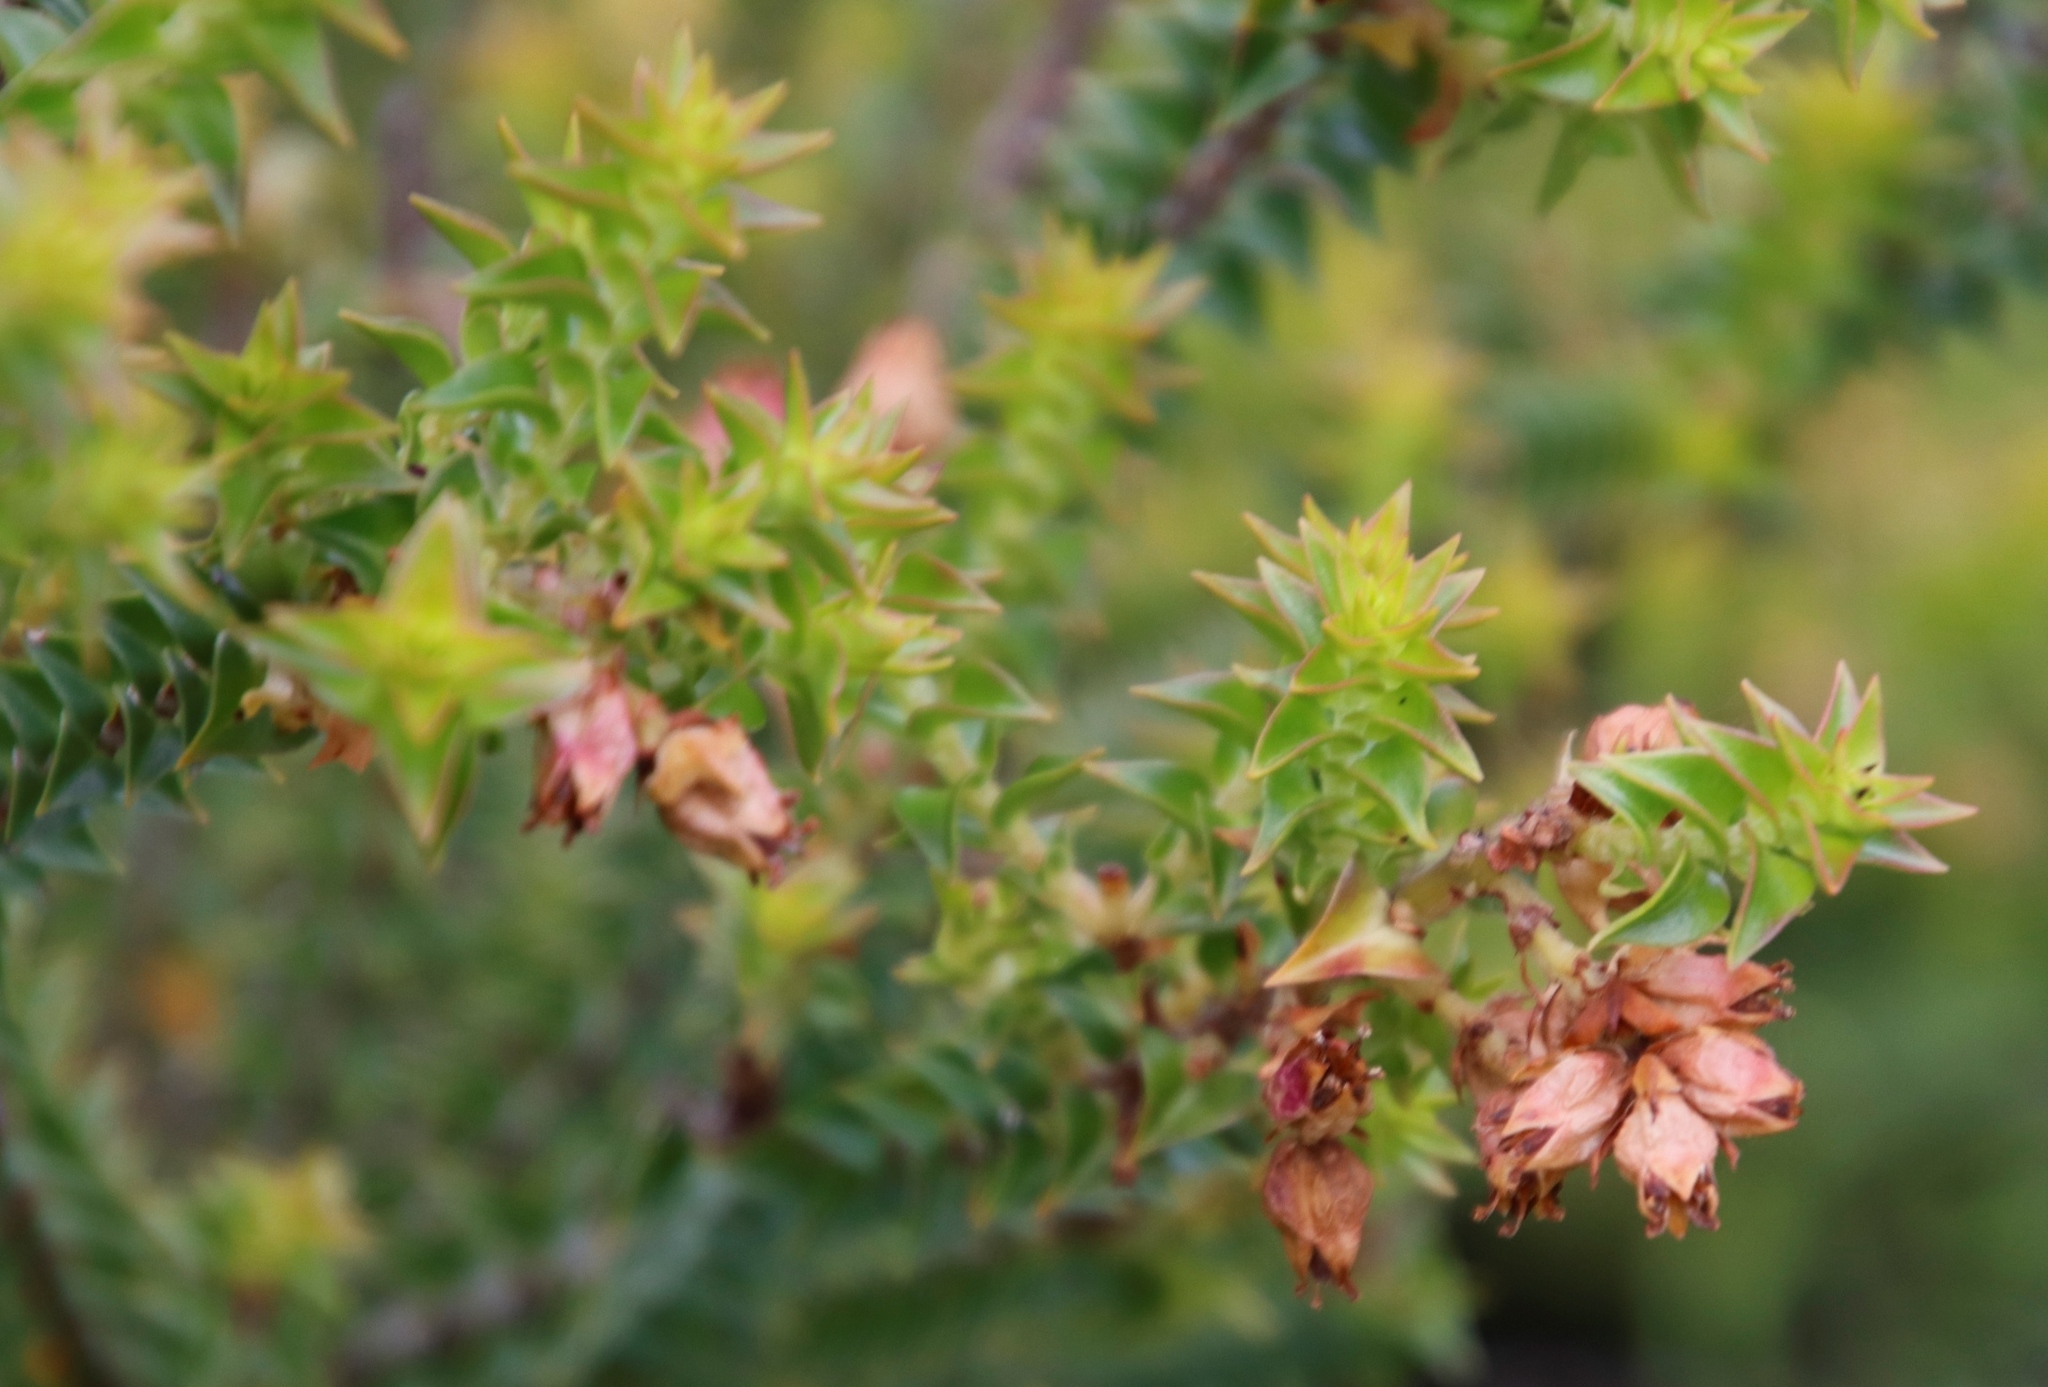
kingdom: Plantae
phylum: Tracheophyta
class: Magnoliopsida
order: Myrtales
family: Penaeaceae
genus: Penaea
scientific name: Penaea mucronata
